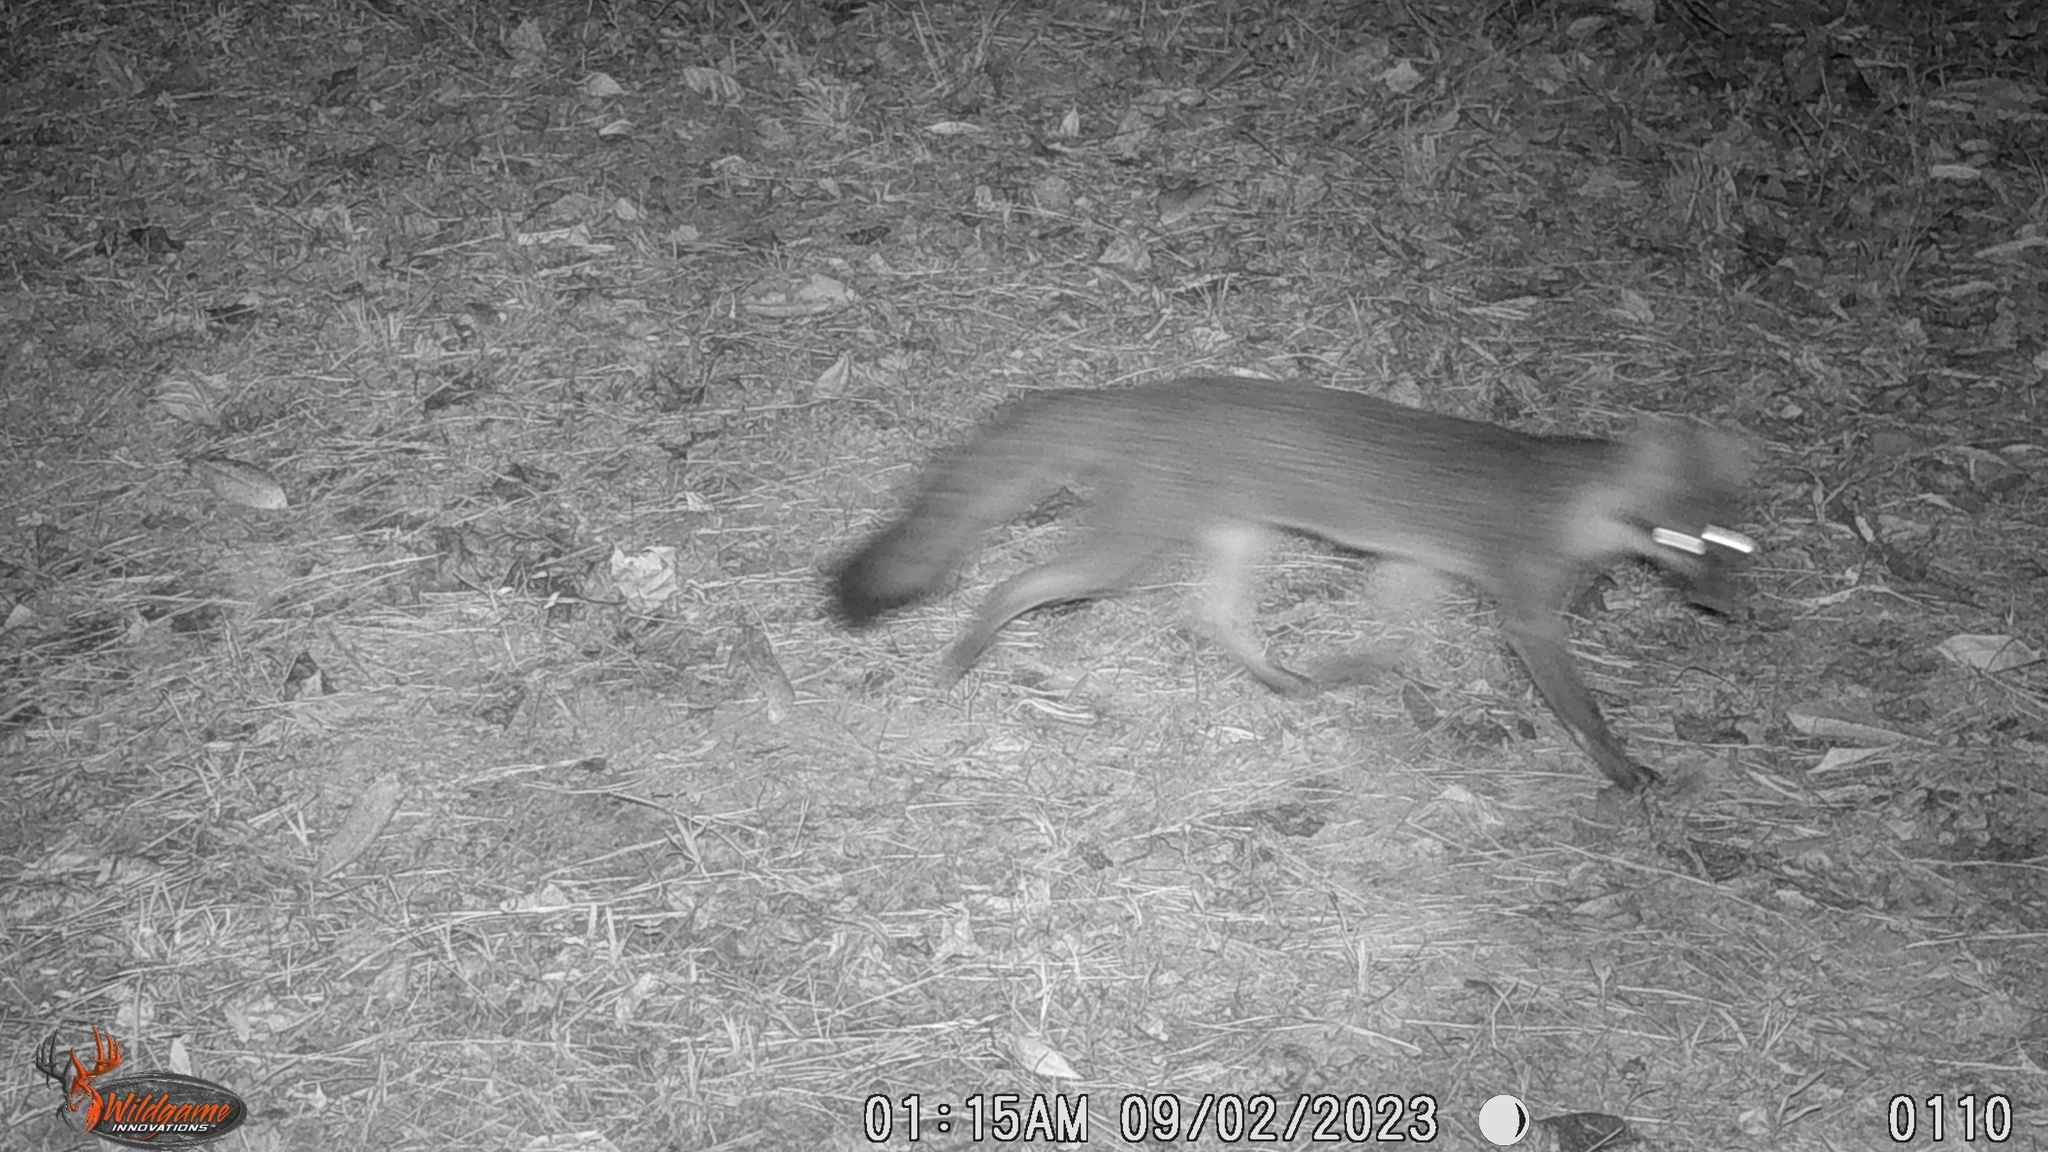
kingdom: Animalia
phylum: Chordata
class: Mammalia
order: Carnivora
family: Canidae
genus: Urocyon
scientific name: Urocyon cinereoargenteus
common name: Gray fox
